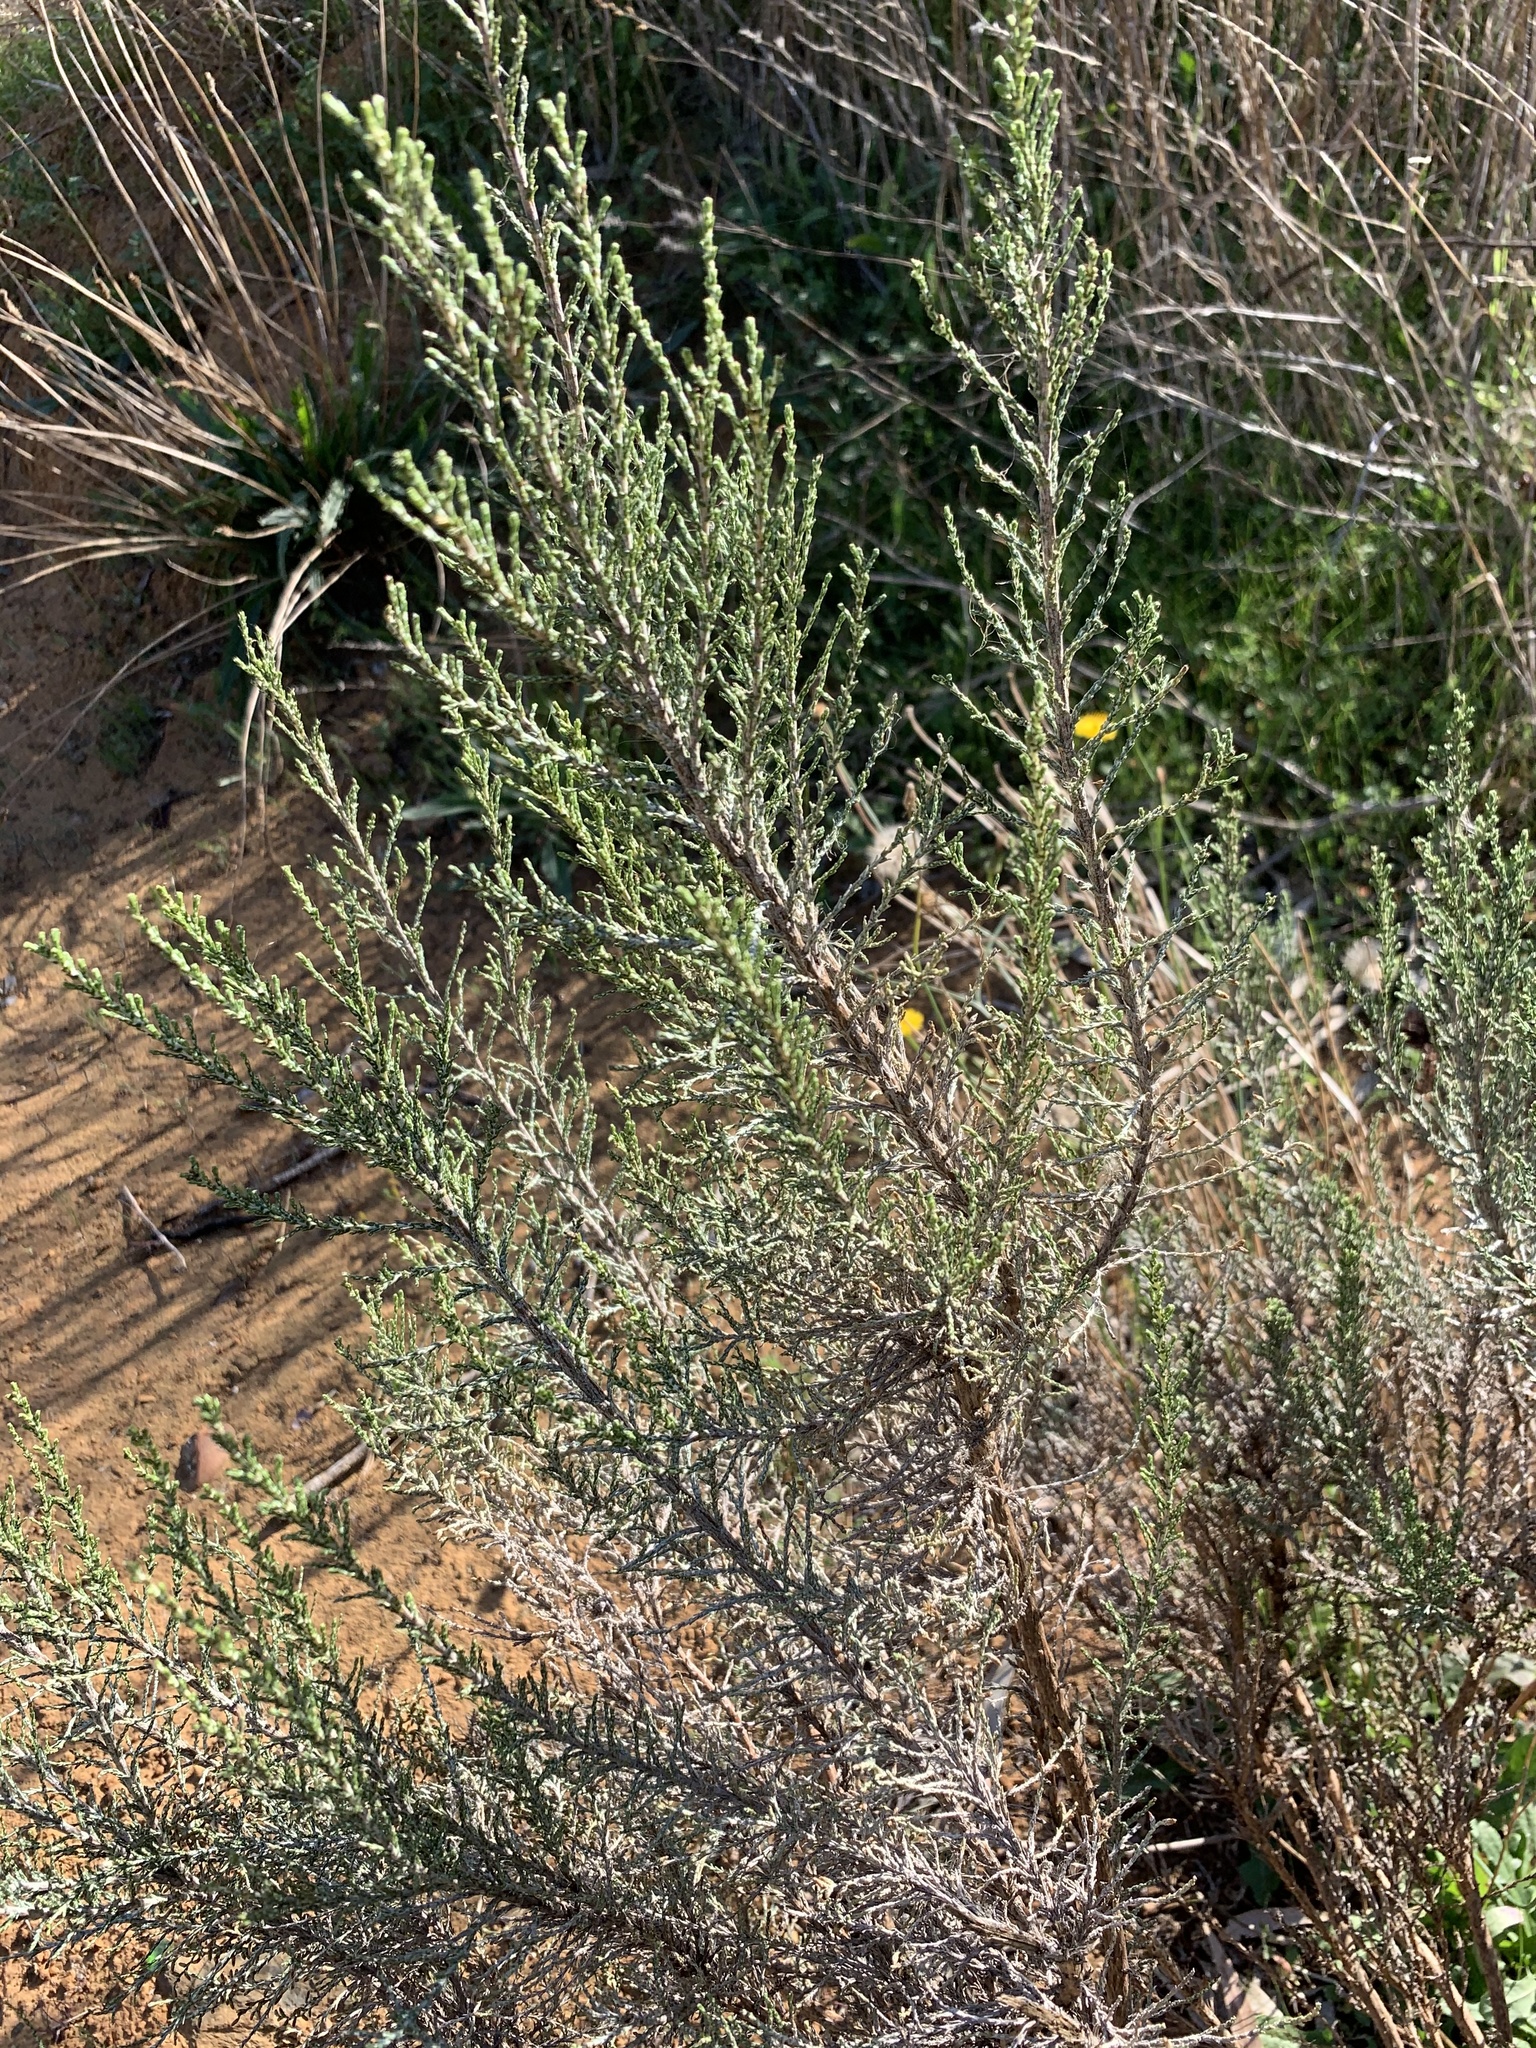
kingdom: Plantae
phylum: Tracheophyta
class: Magnoliopsida
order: Asterales
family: Asteraceae
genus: Dicerothamnus
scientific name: Dicerothamnus rhinocerotis
